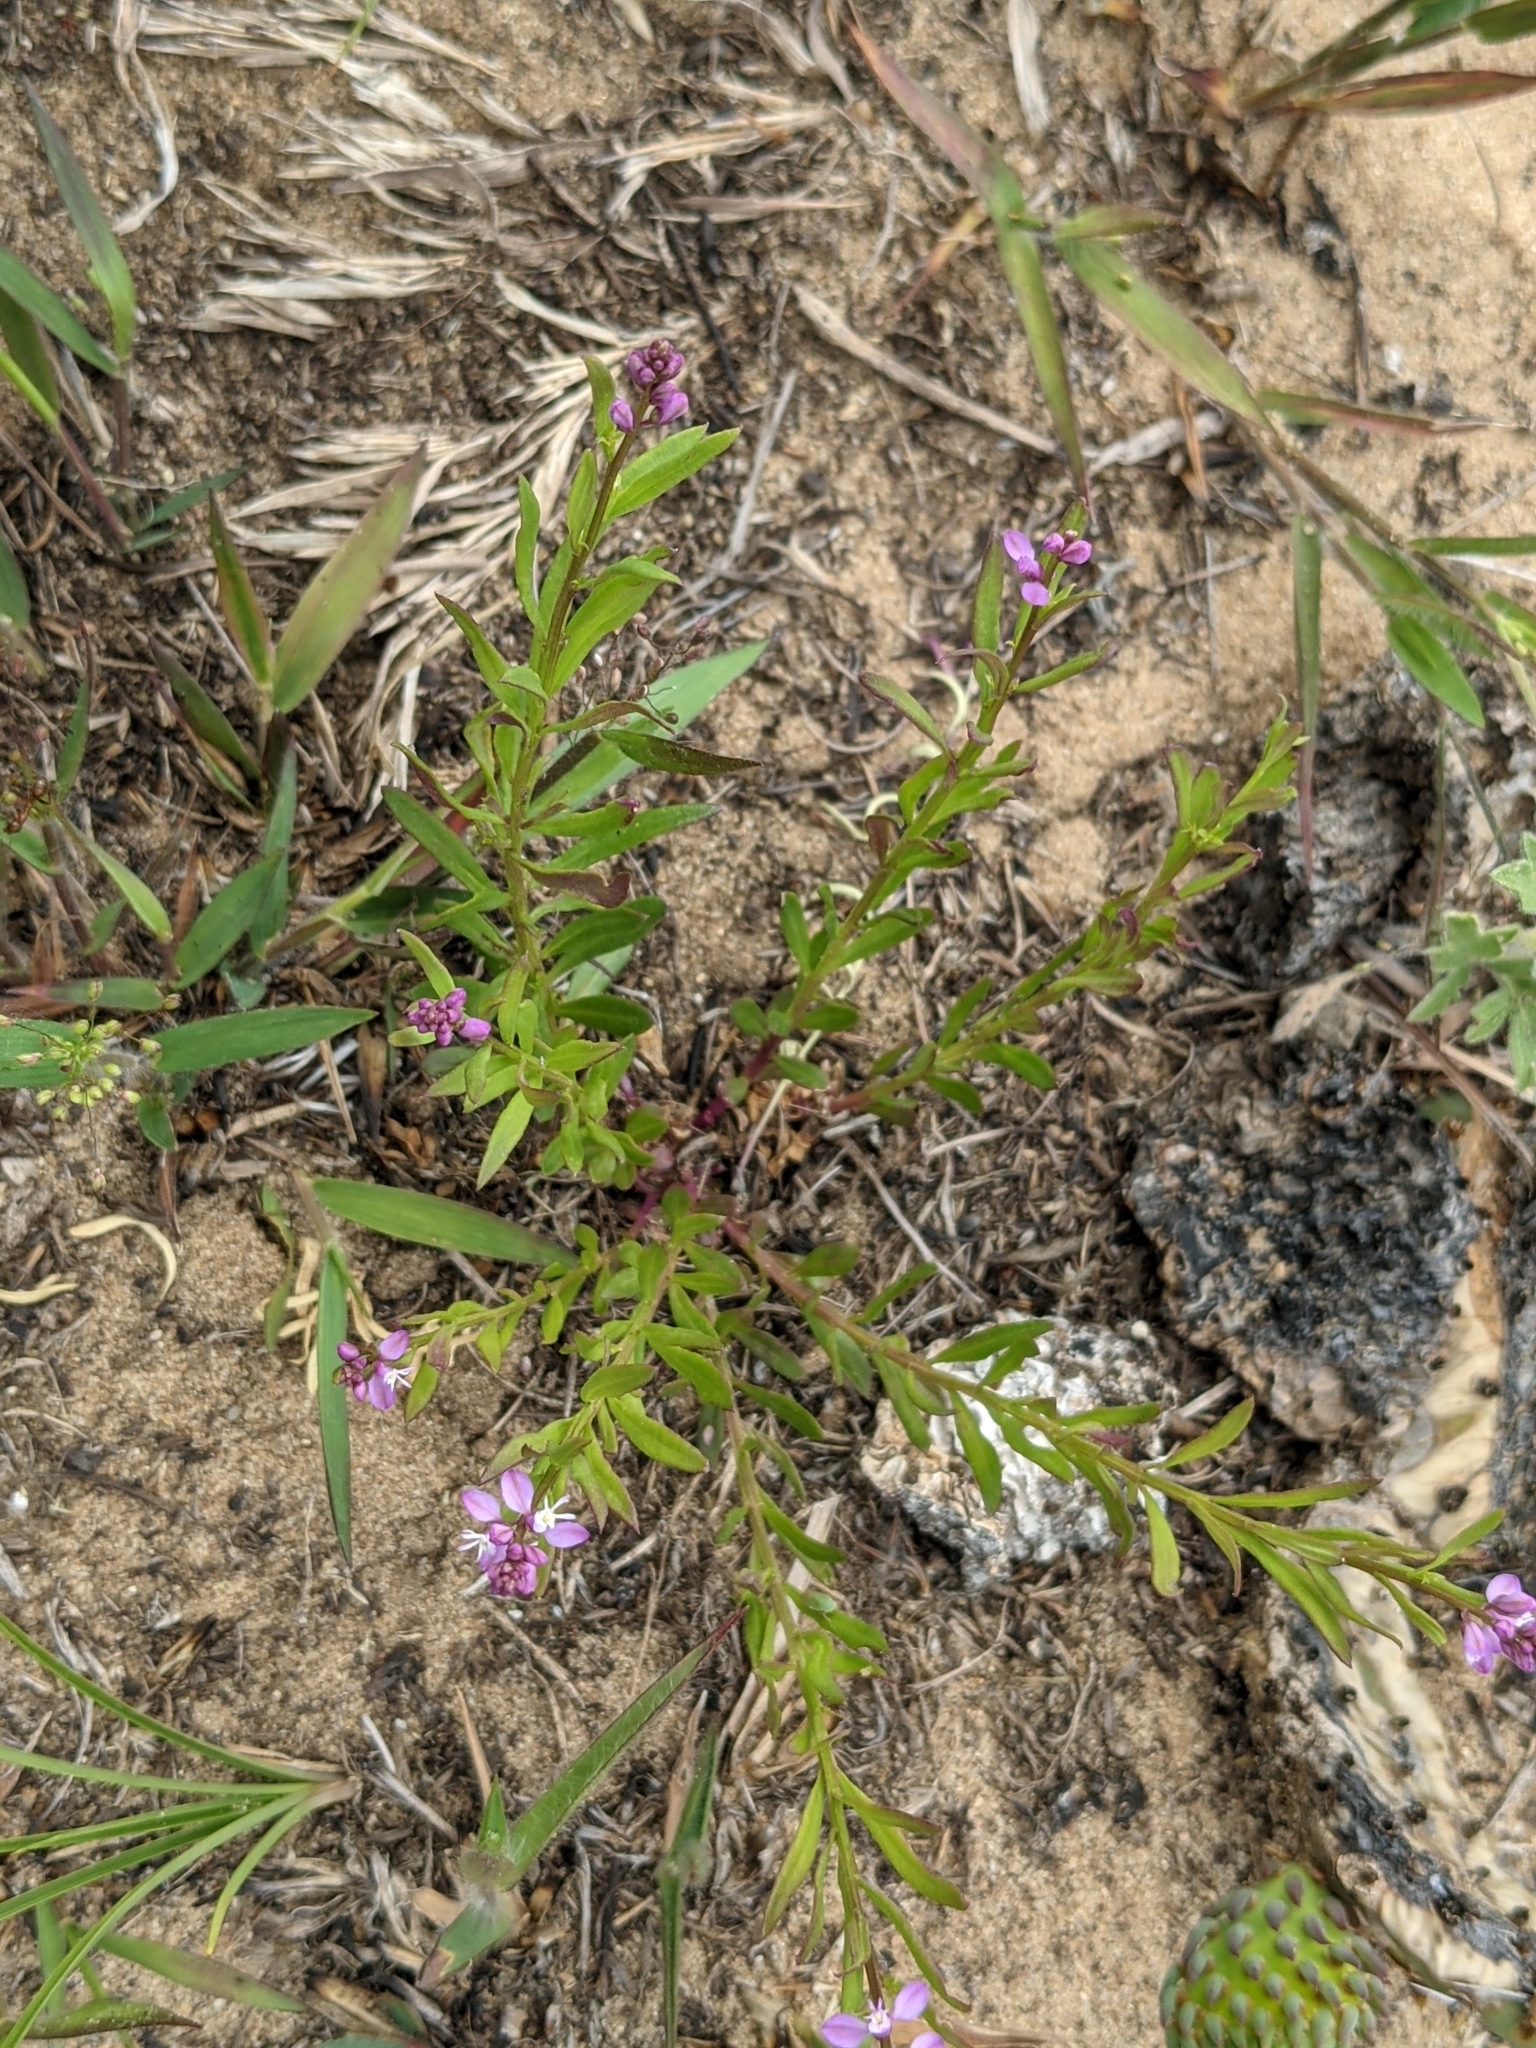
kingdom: Plantae
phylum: Tracheophyta
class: Magnoliopsida
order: Fabales
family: Polygalaceae
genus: Polygala
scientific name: Polygala polygama
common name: Bitter milkwort
